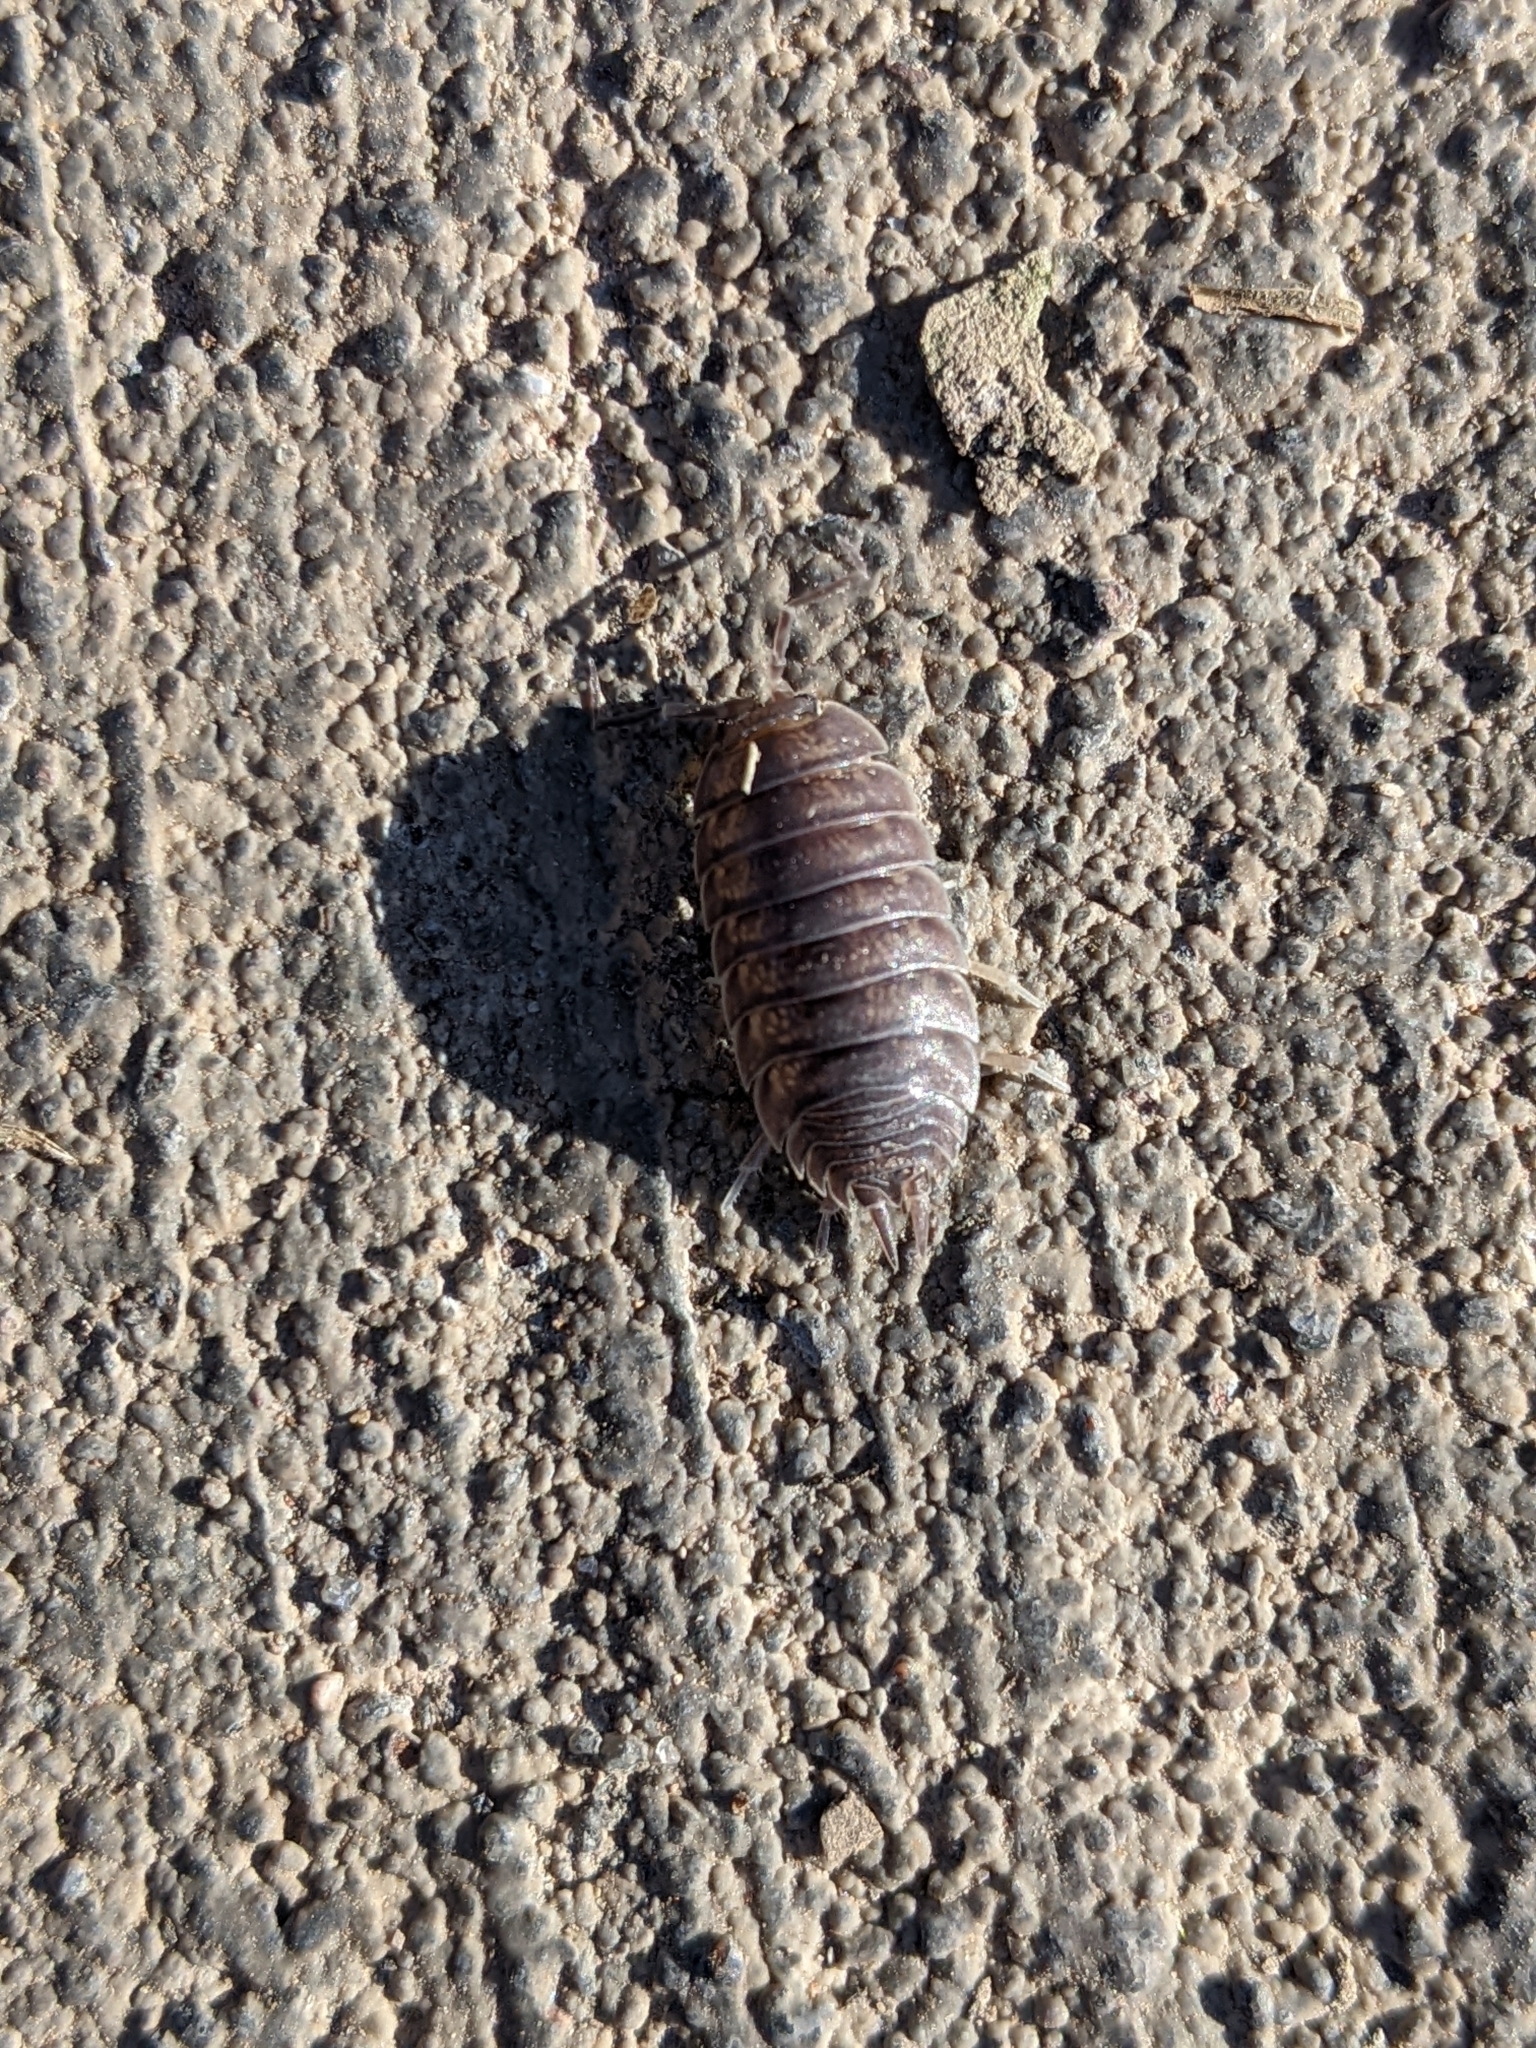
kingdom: Animalia
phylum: Arthropoda
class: Malacostraca
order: Isopoda
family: Porcellionidae
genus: Porcellio
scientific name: Porcellio laevis
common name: Swift woodlouse
